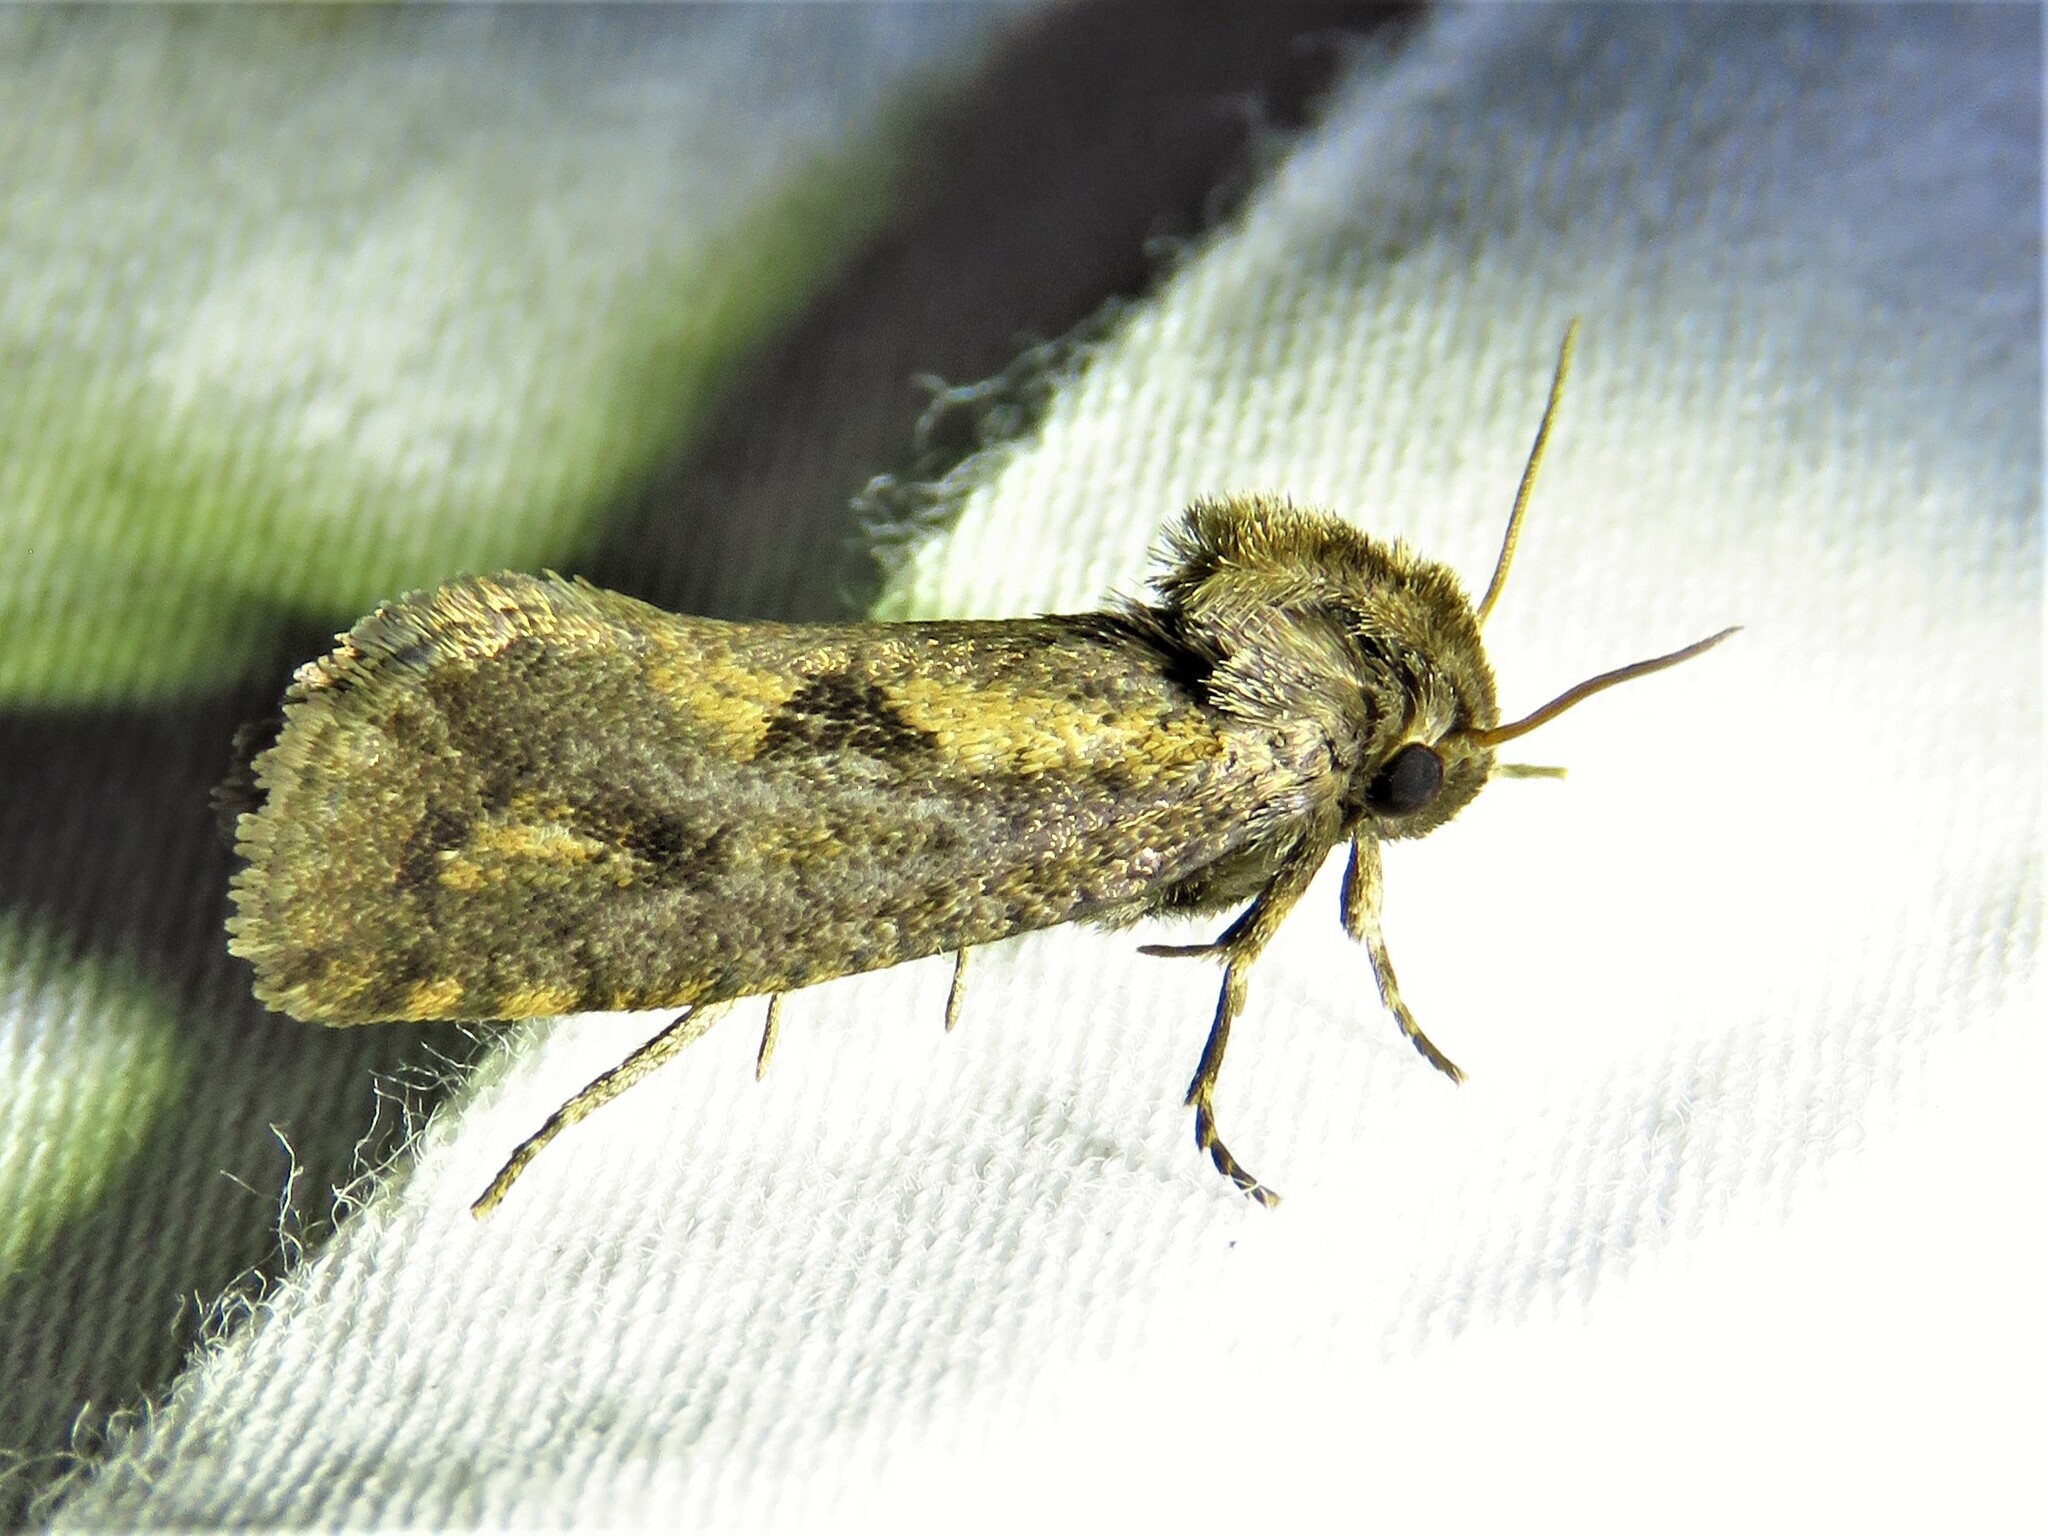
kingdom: Animalia
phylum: Arthropoda
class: Insecta
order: Lepidoptera
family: Tineidae
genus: Acrolophus
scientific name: Acrolophus popeanella
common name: Clemens' grass tubeworm moth
